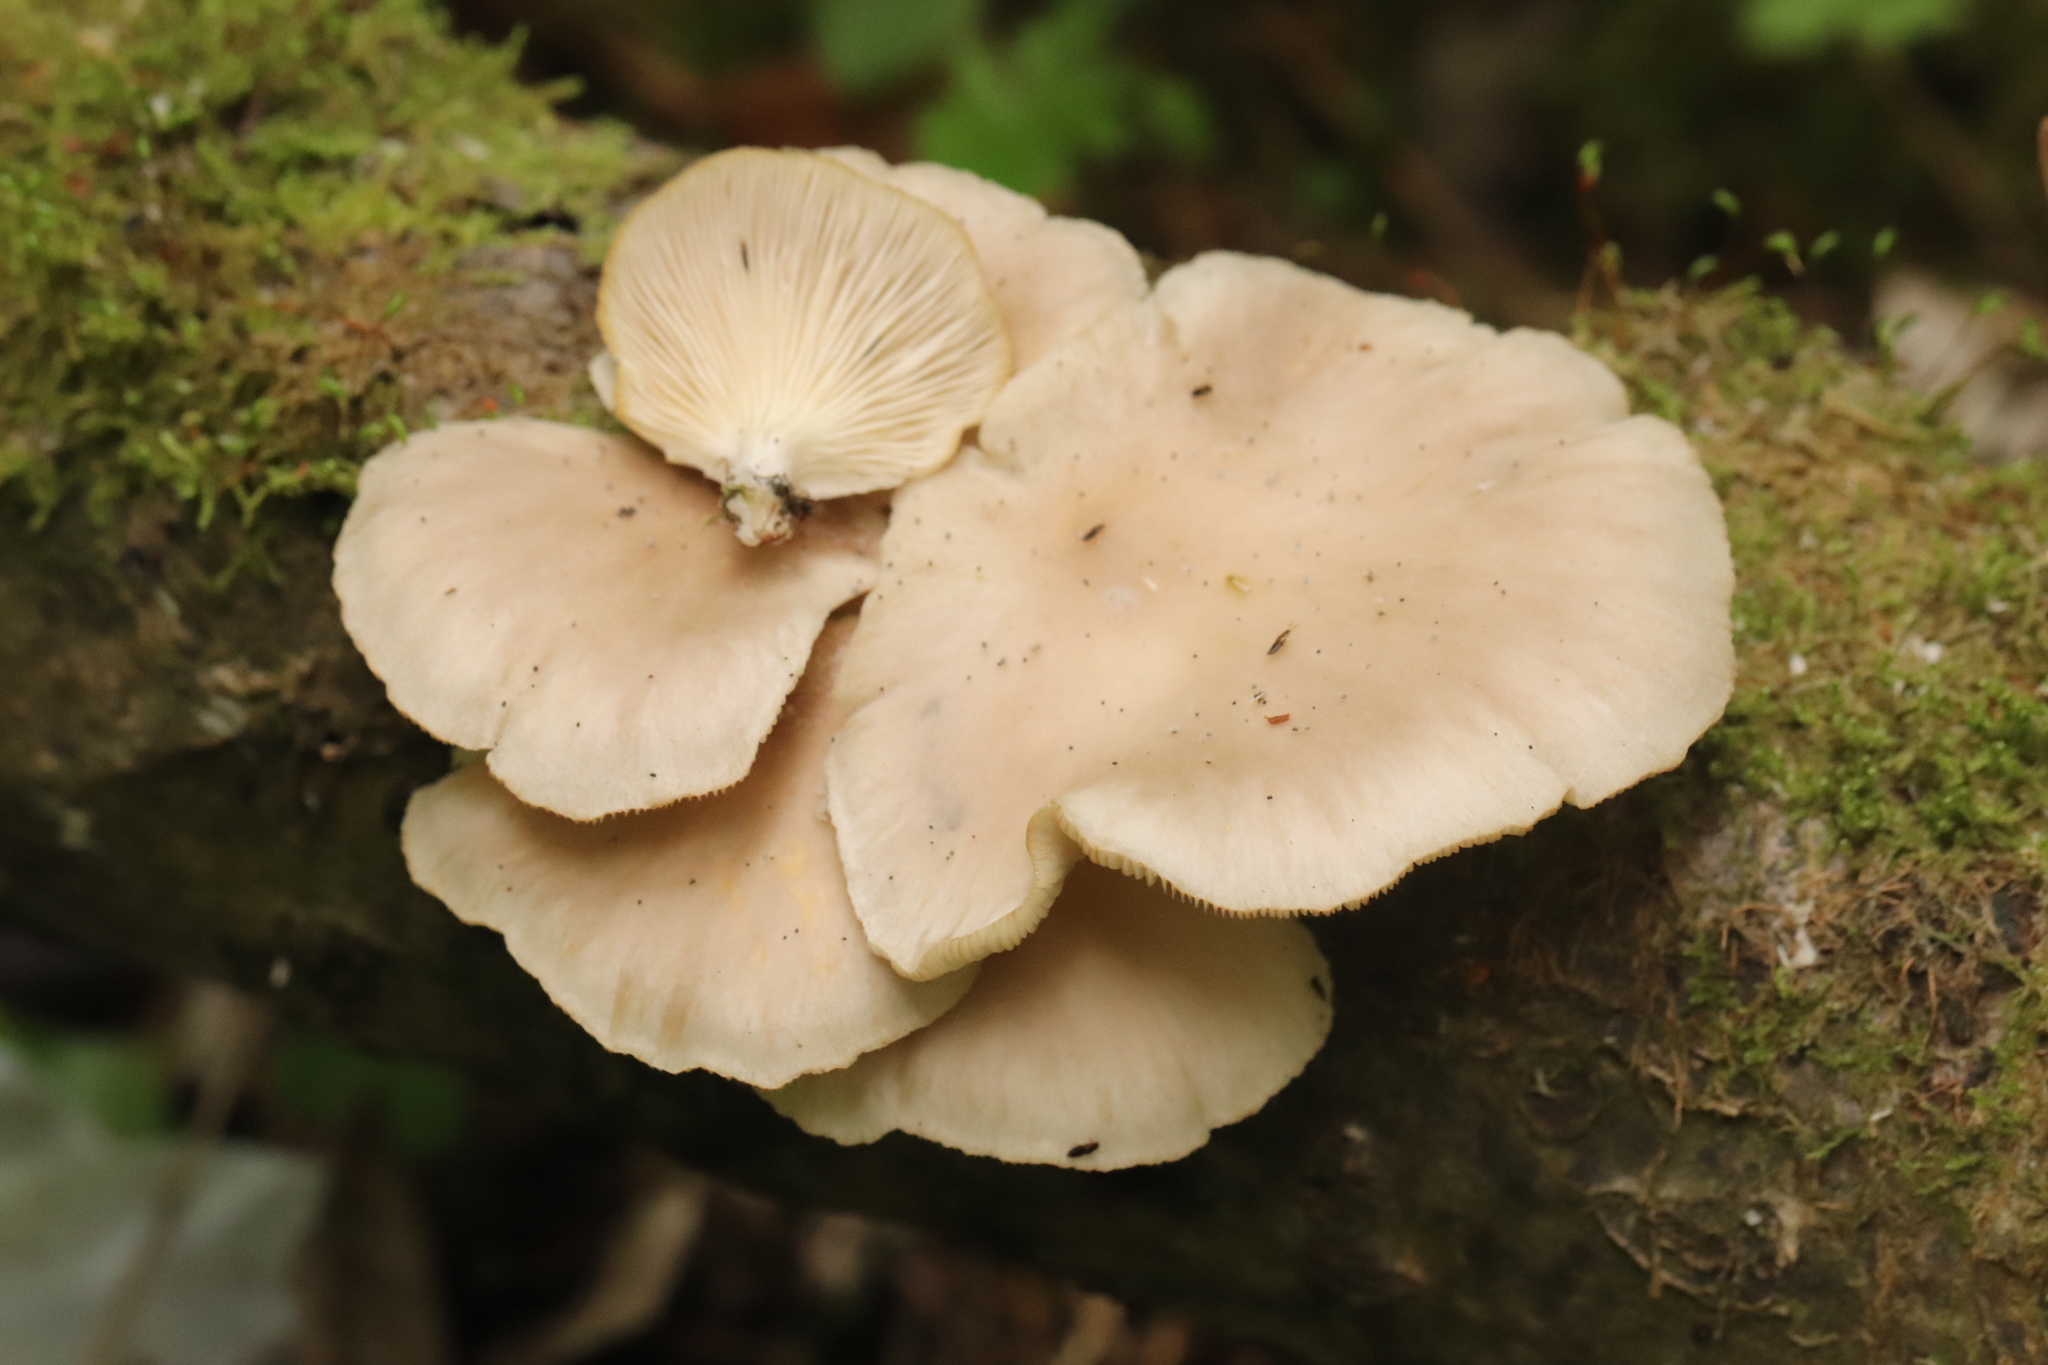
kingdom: Fungi
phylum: Basidiomycota
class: Agaricomycetes
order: Agaricales
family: Pleurotaceae
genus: Pleurotus
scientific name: Pleurotus pulmonarius
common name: Pale oyster
